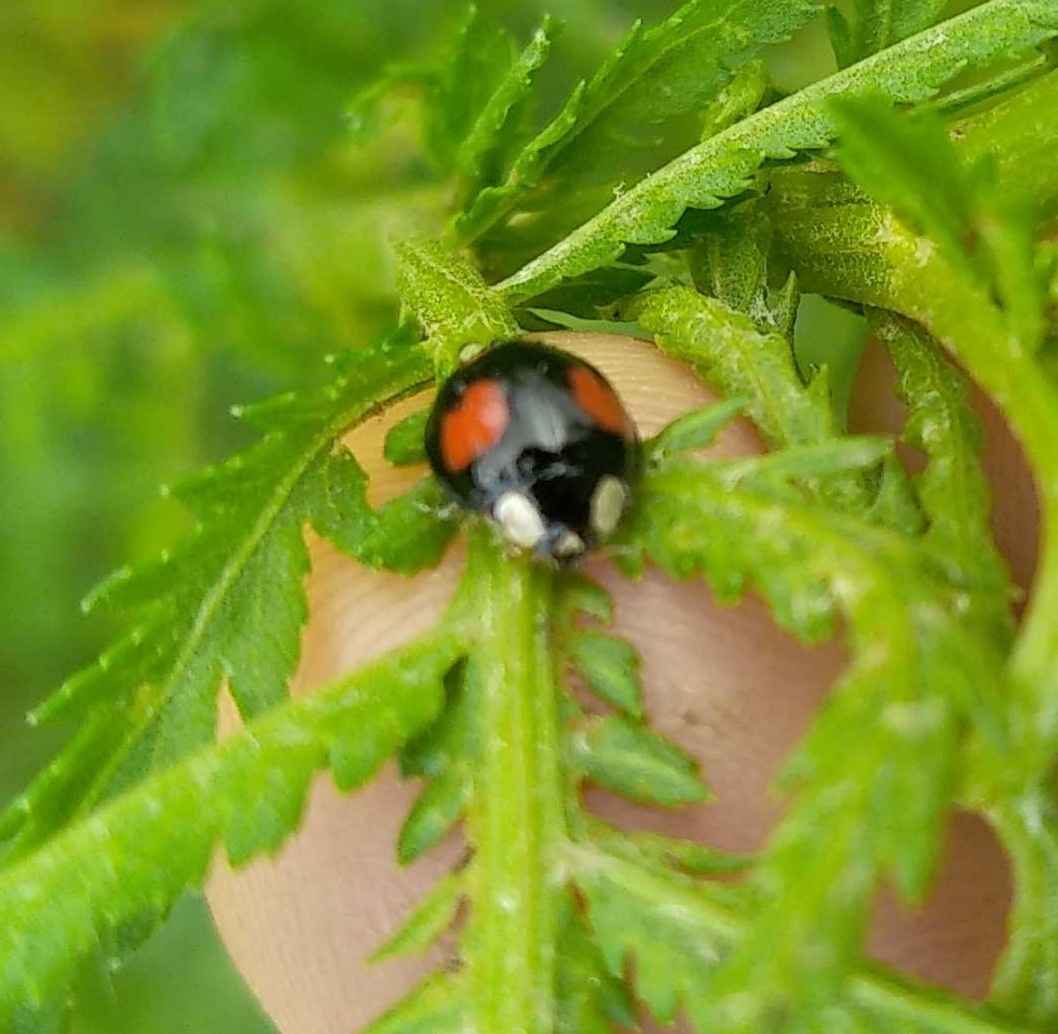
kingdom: Animalia
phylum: Arthropoda
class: Insecta
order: Coleoptera
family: Coccinellidae
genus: Harmonia
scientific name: Harmonia axyridis
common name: Harlequin ladybird
